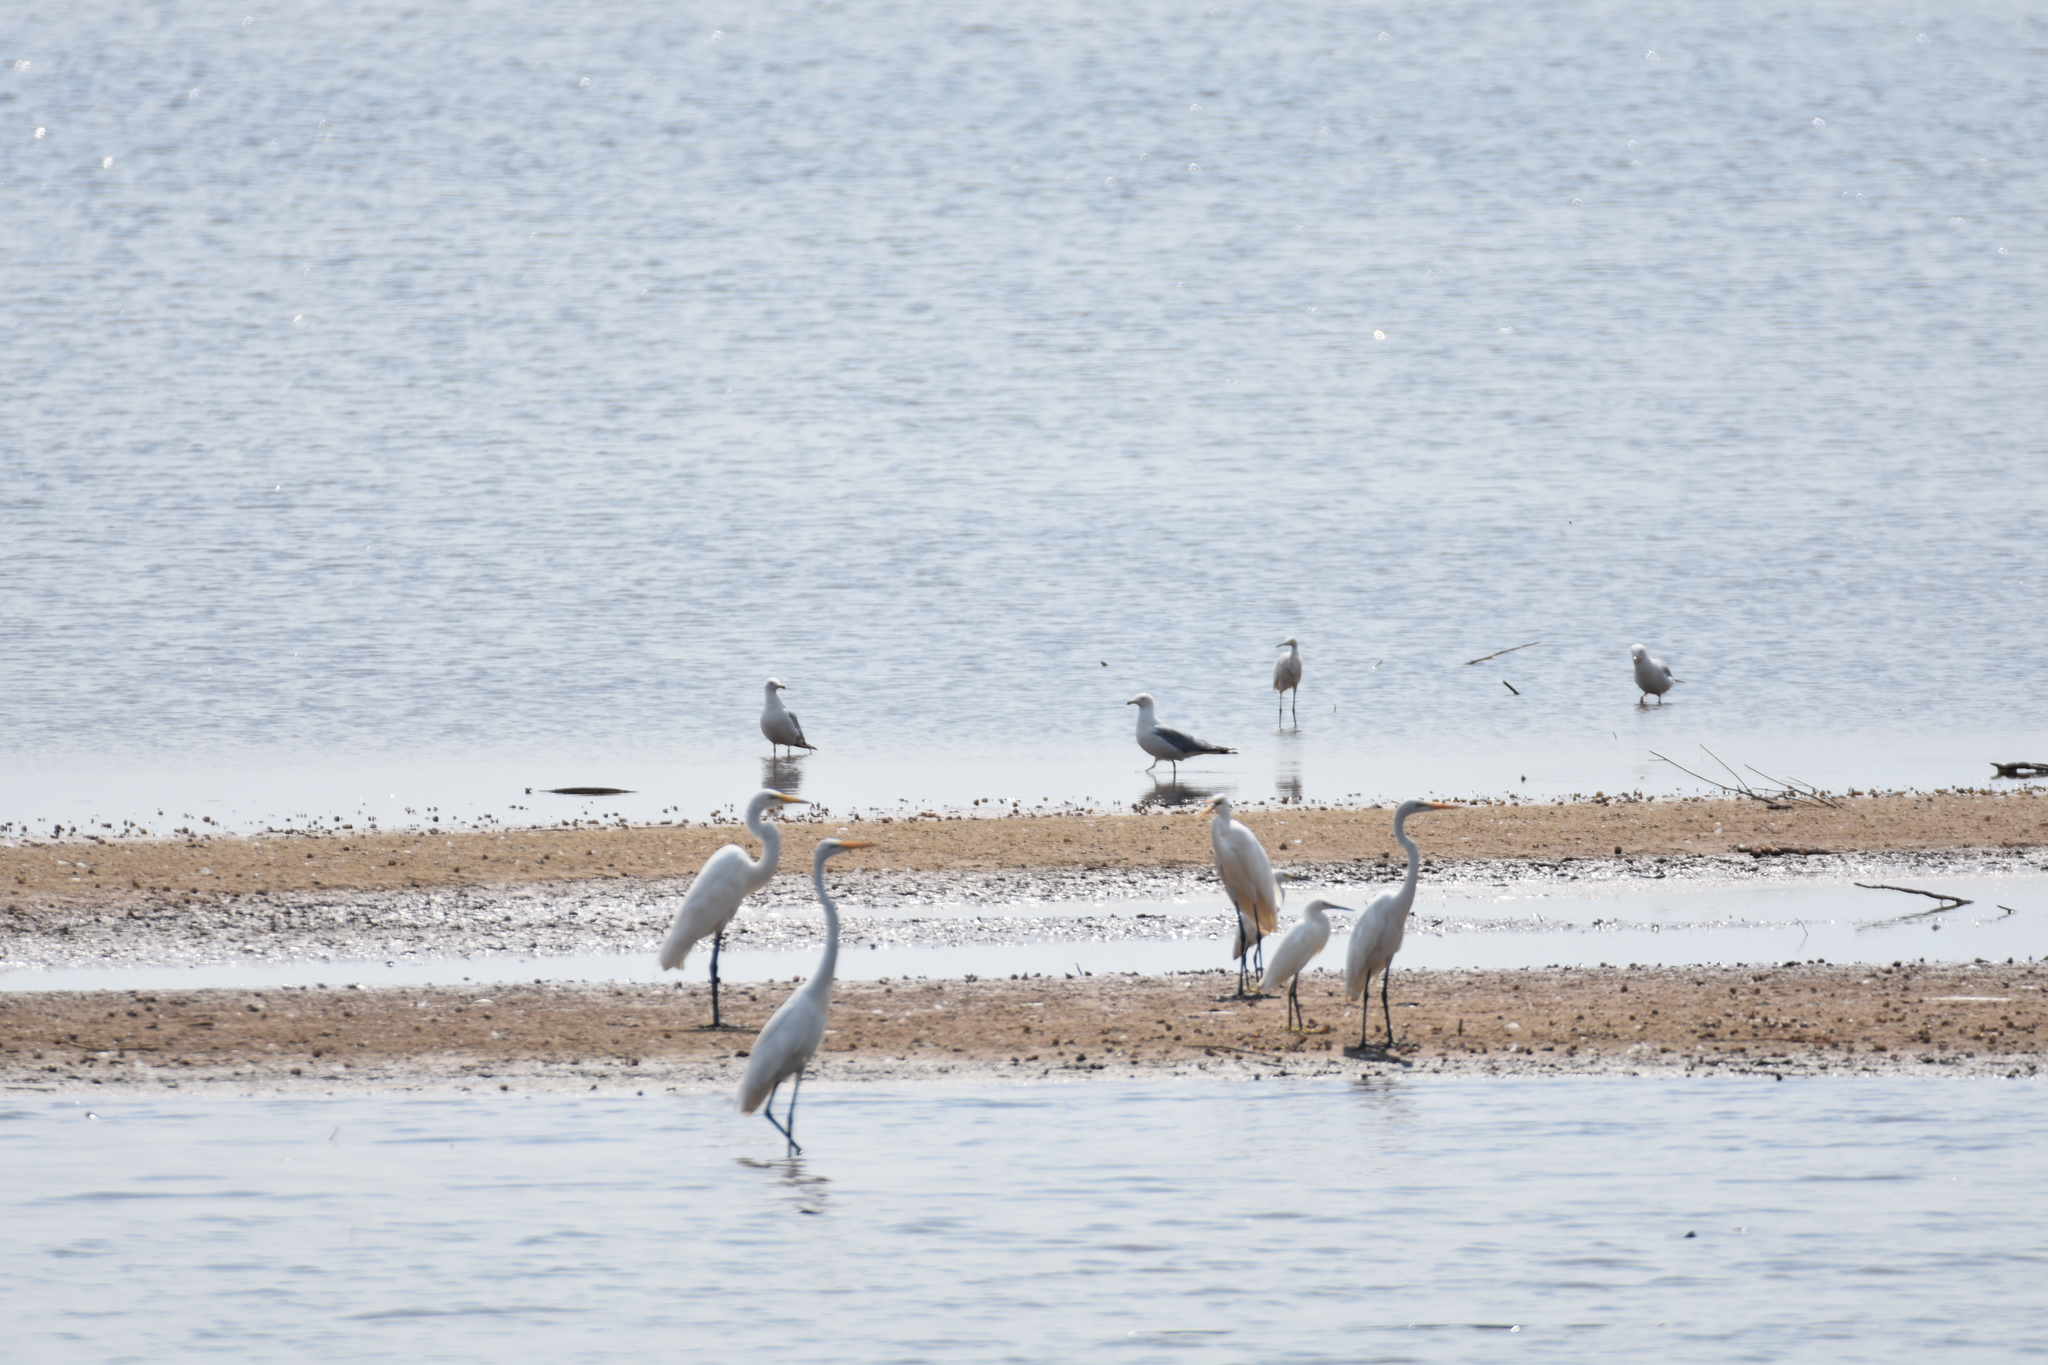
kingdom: Animalia
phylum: Chordata
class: Aves
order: Charadriiformes
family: Laridae
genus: Larus
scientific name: Larus delawarensis
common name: Ring-billed gull
